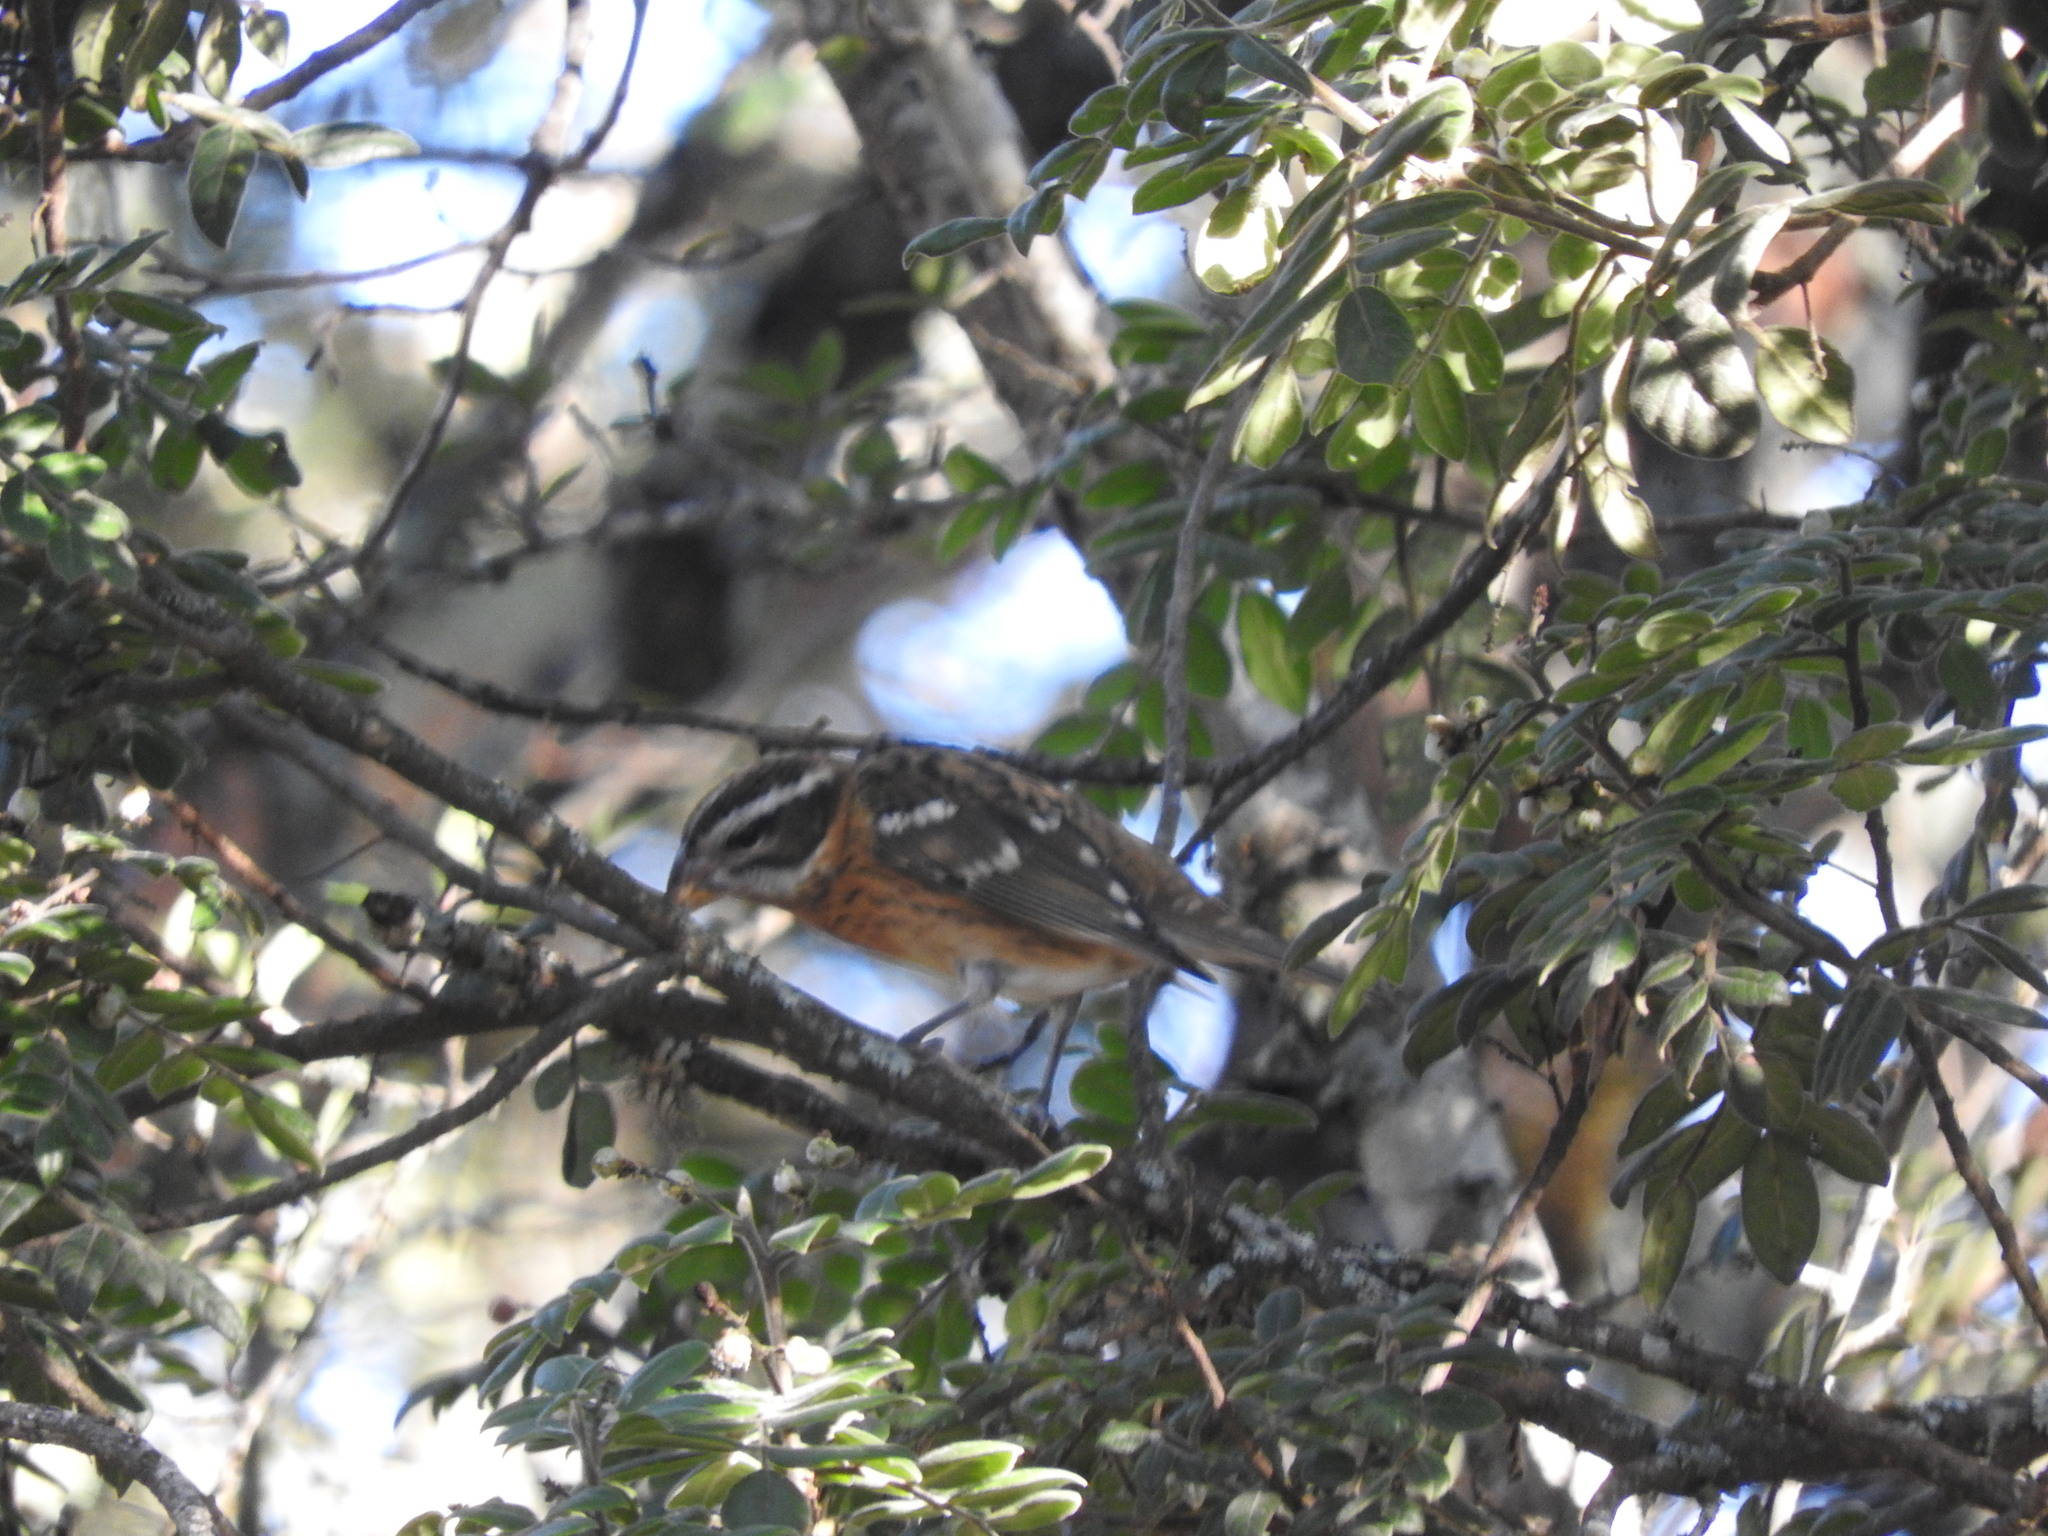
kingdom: Animalia
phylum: Chordata
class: Aves
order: Passeriformes
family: Cardinalidae
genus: Pheucticus
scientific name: Pheucticus melanocephalus
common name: Black-headed grosbeak
